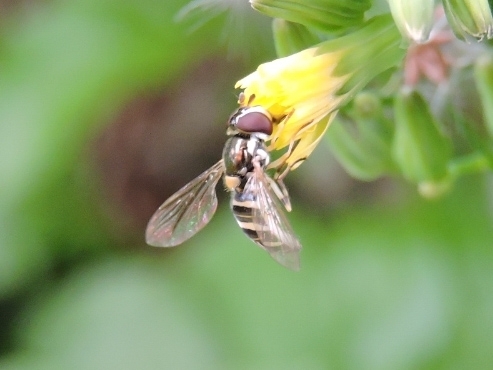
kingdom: Animalia
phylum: Arthropoda
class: Insecta
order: Diptera
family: Syrphidae
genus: Allograpta
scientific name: Allograpta exotica
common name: Syrphid fly
